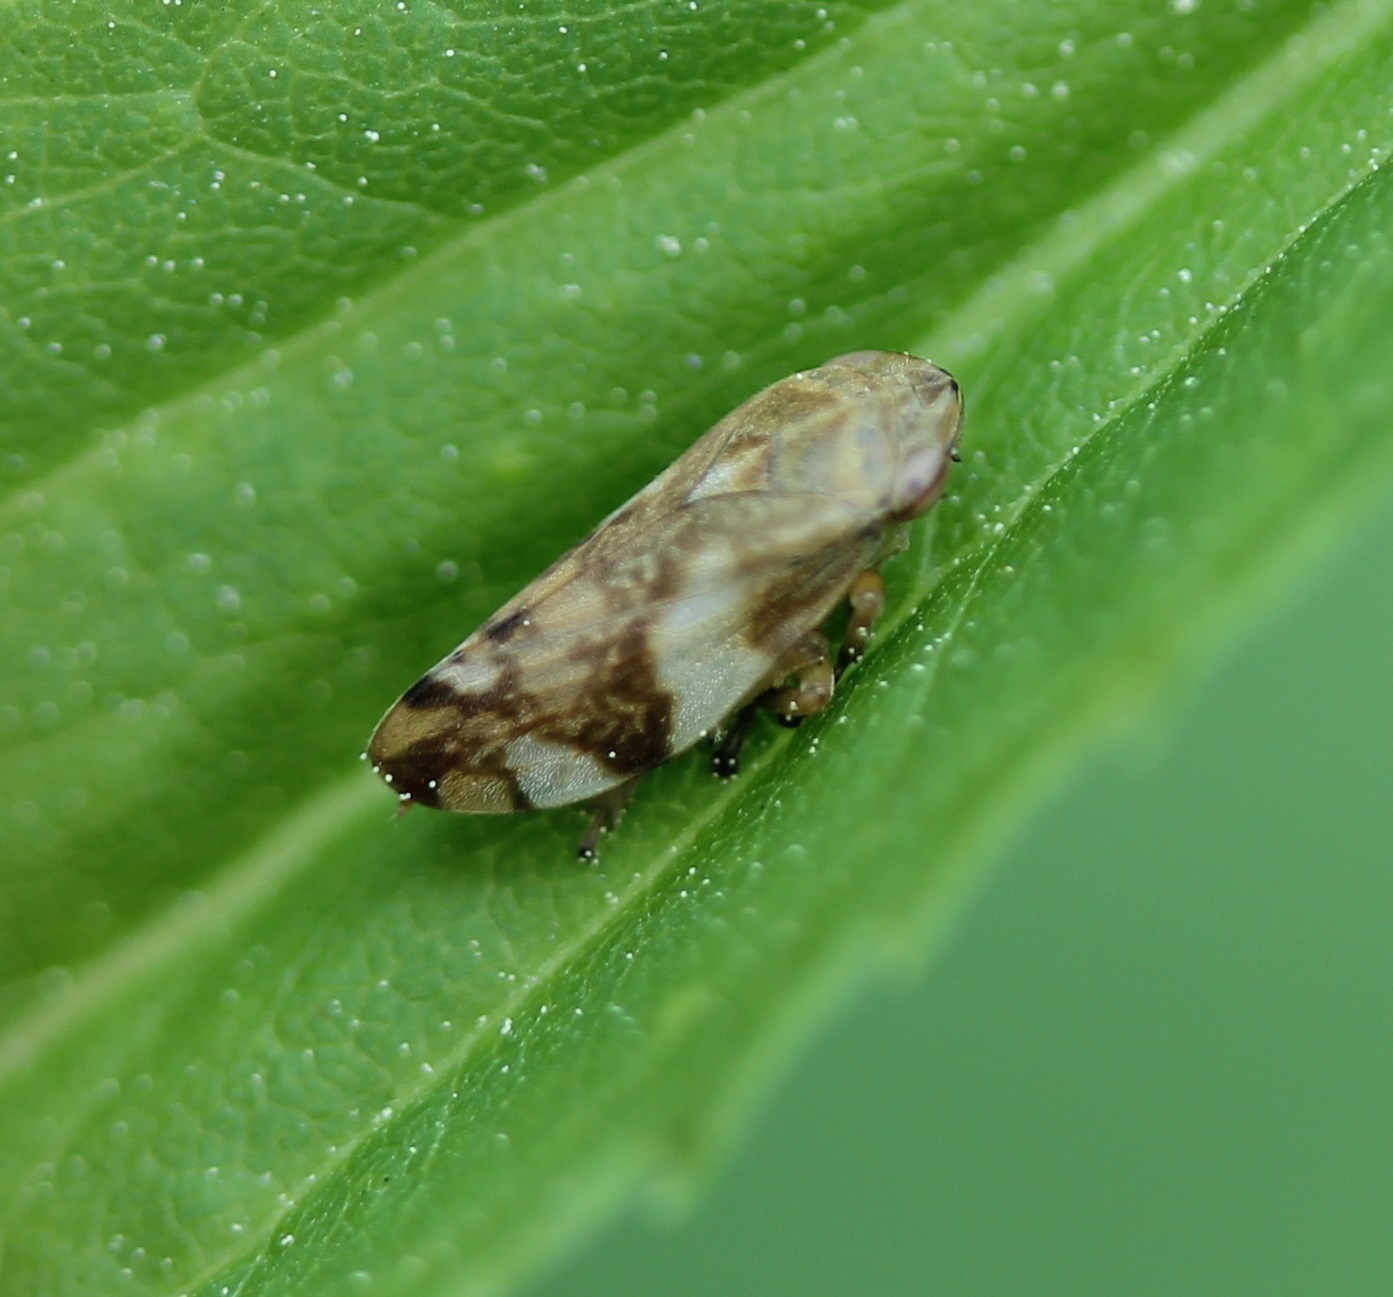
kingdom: Animalia
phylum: Arthropoda
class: Insecta
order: Hemiptera
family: Aphrophoridae
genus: Philaenus
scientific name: Philaenus spumarius
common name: Meadow spittlebug
